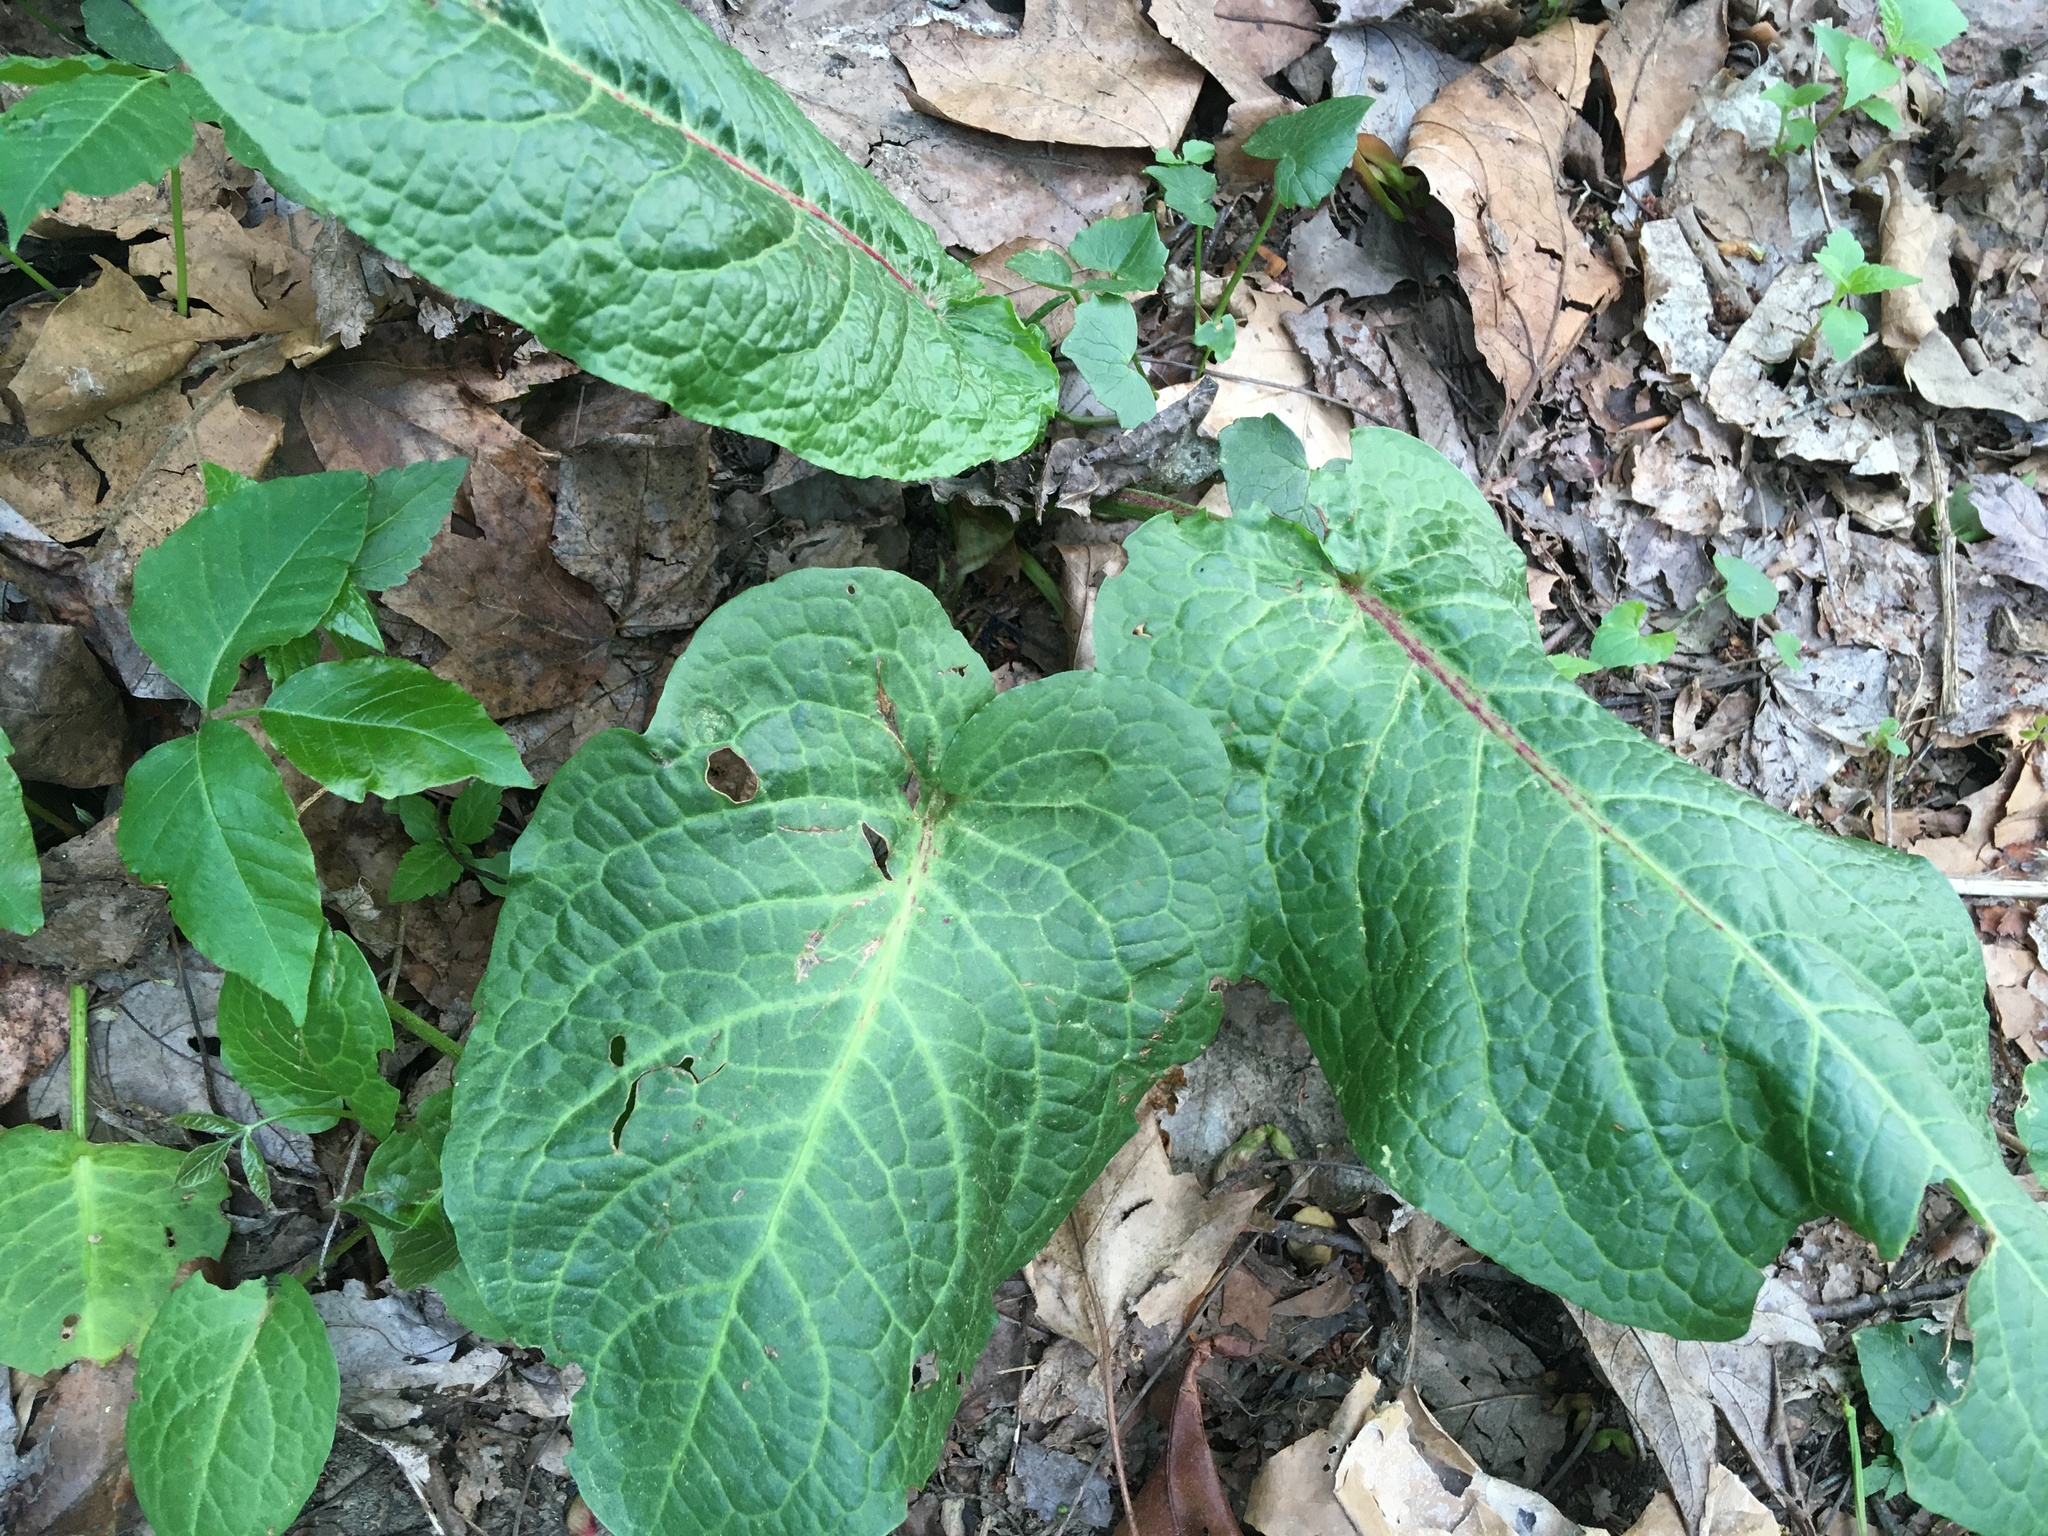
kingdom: Plantae
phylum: Tracheophyta
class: Magnoliopsida
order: Caryophyllales
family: Polygonaceae
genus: Rumex
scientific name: Rumex obtusifolius
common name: Bitter dock
